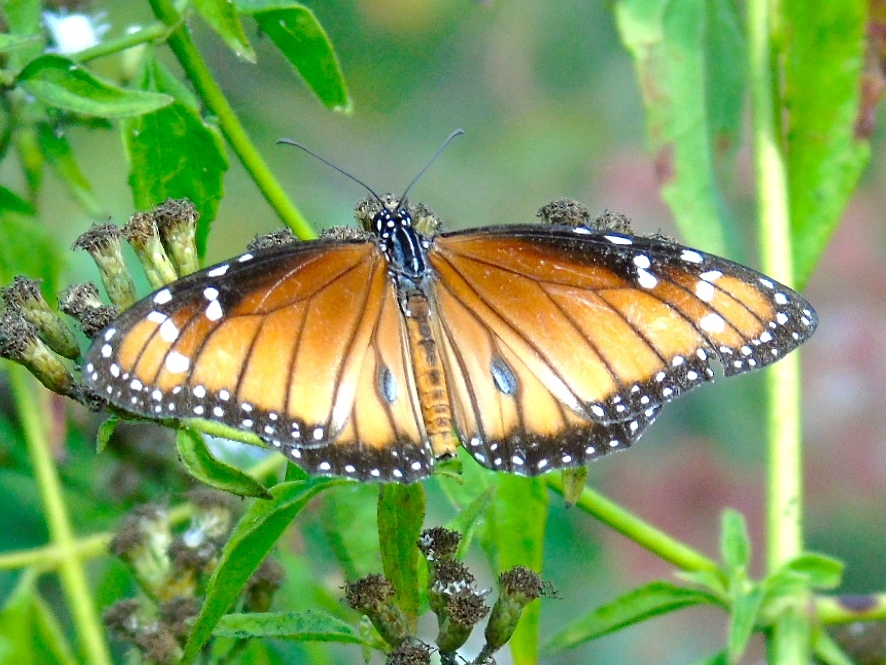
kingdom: Animalia
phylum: Arthropoda
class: Insecta
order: Lepidoptera
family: Nymphalidae
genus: Danaus
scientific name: Danaus eresimus
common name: Soldier
